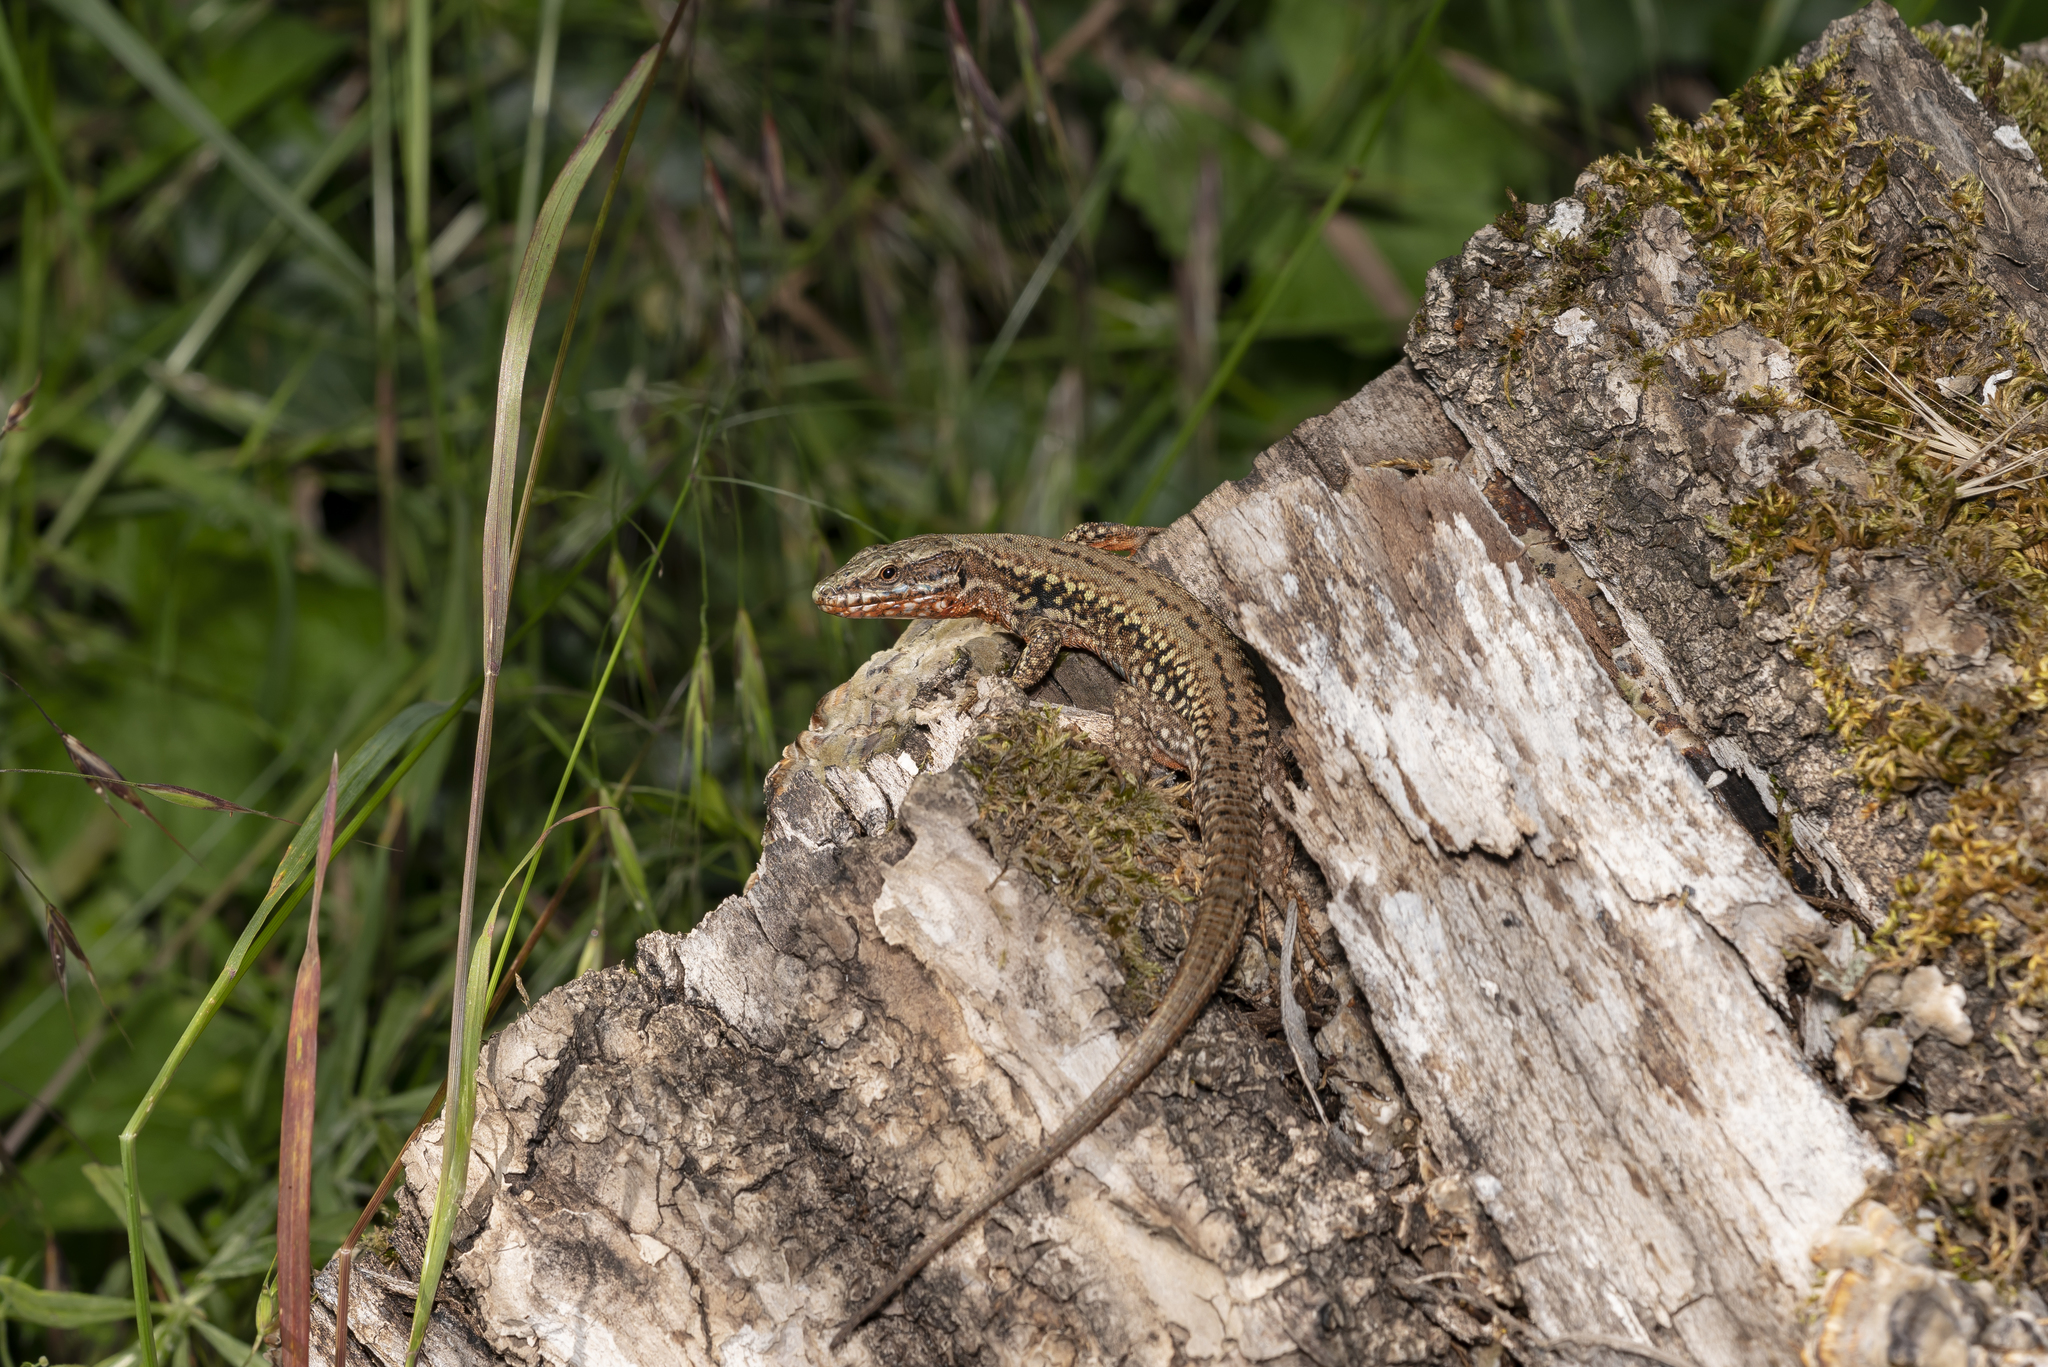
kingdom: Animalia
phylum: Chordata
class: Squamata
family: Lacertidae
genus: Podarcis
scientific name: Podarcis muralis
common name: Common wall lizard
